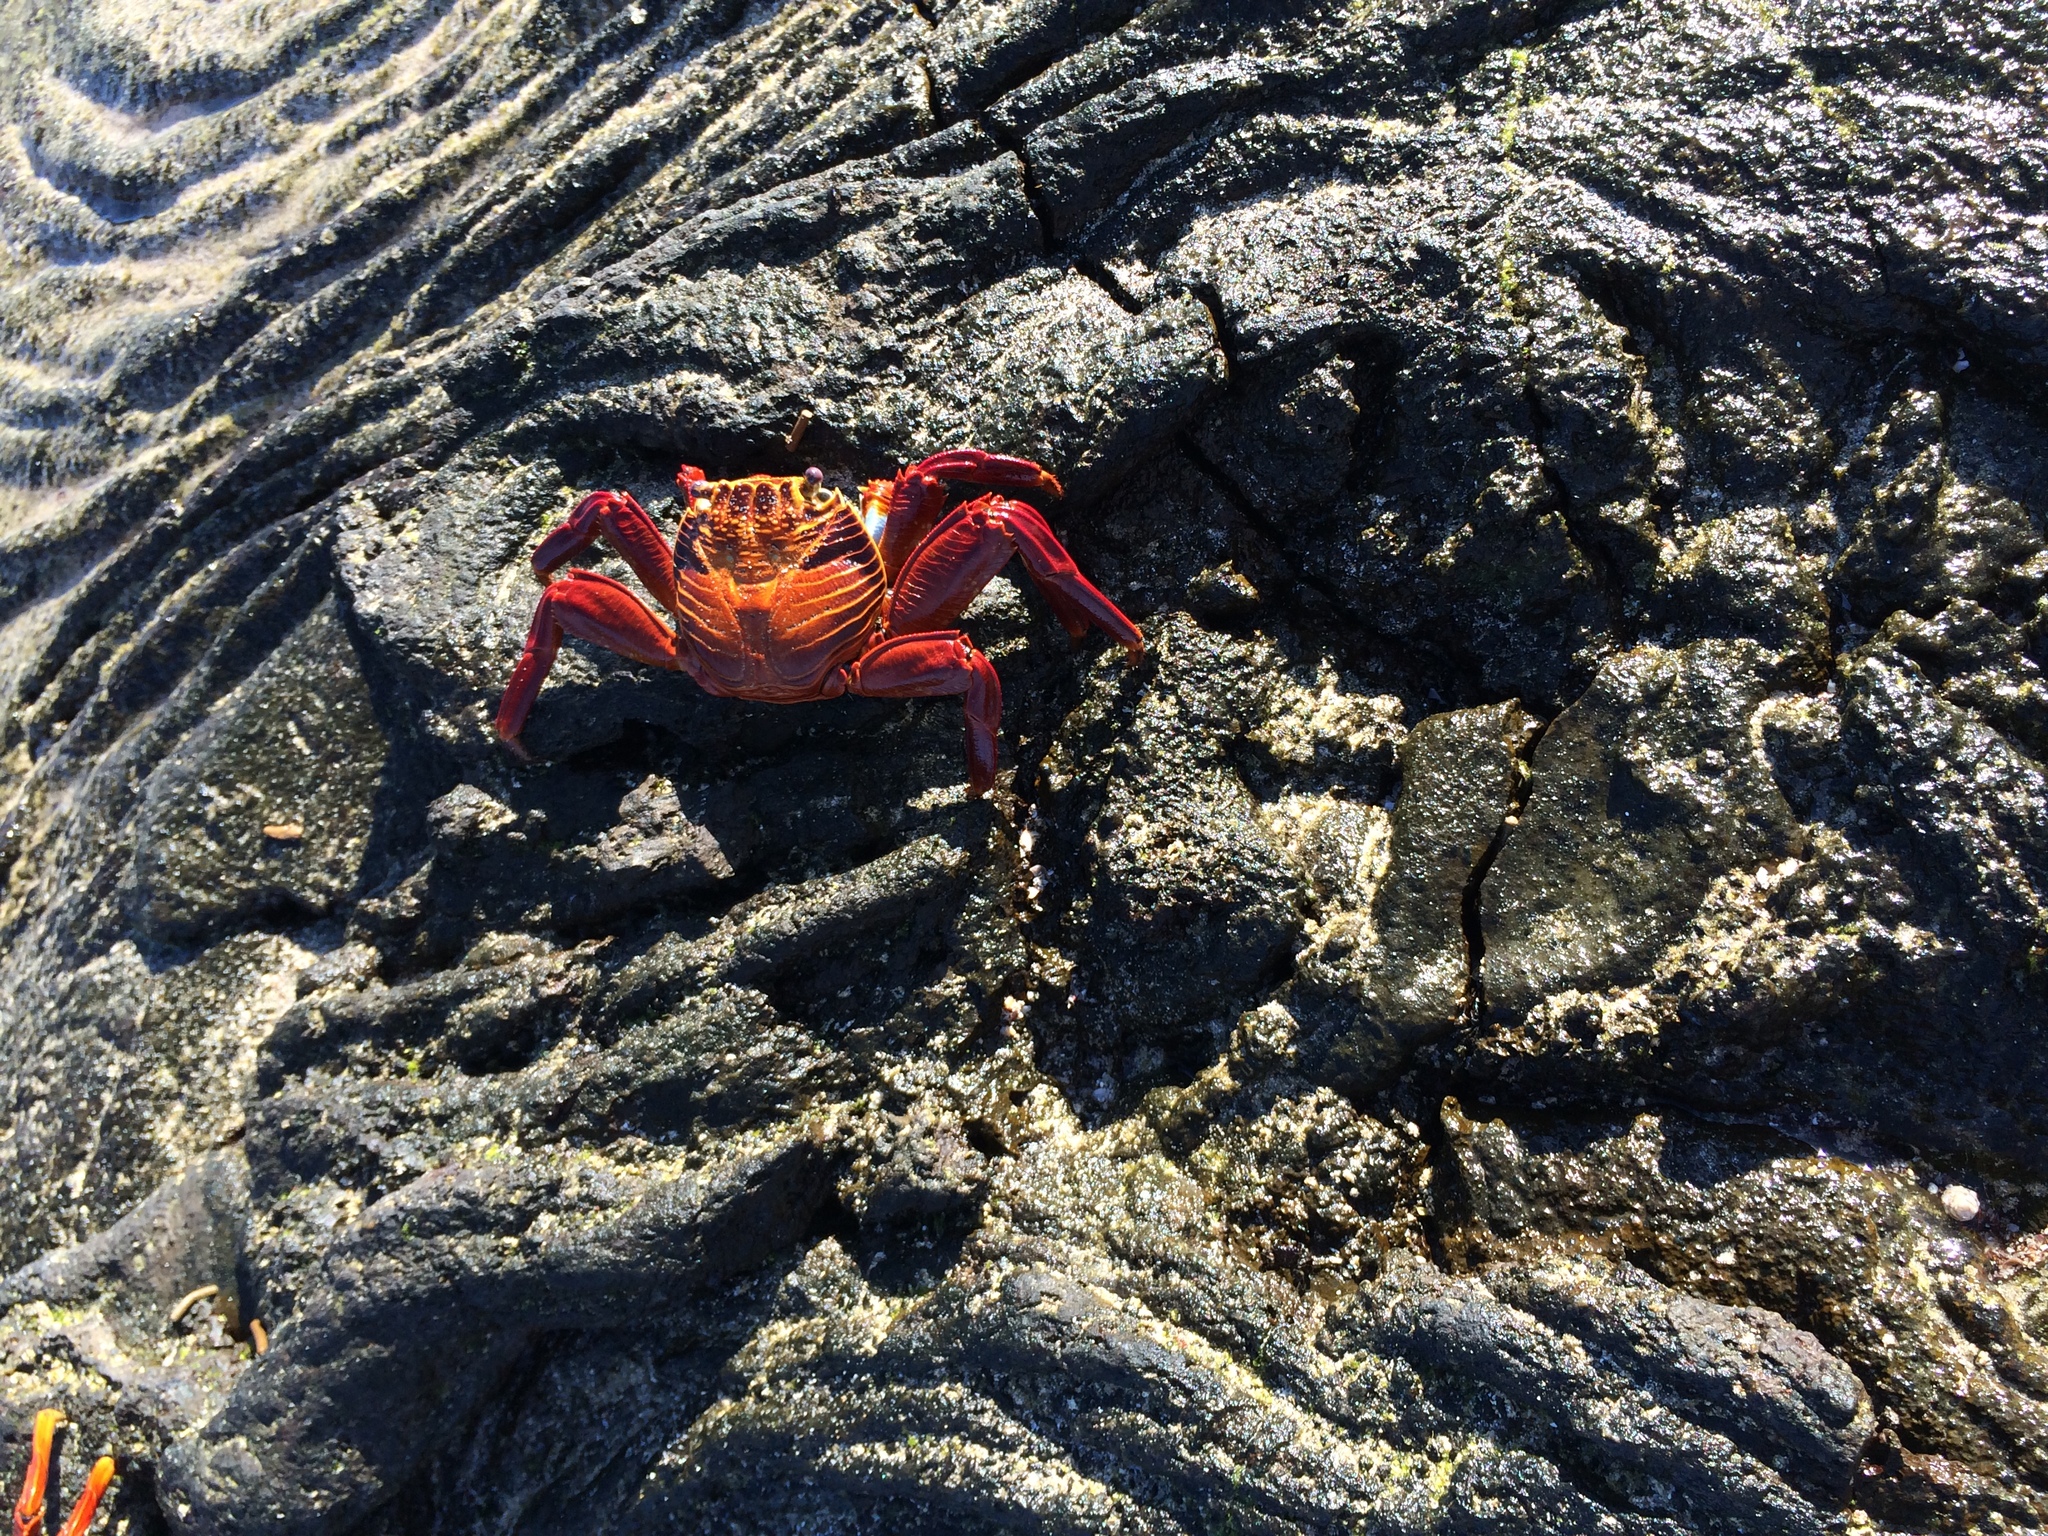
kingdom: Animalia
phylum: Arthropoda
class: Malacostraca
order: Decapoda
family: Grapsidae
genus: Grapsus
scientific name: Grapsus grapsus
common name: Sally lightfoot
